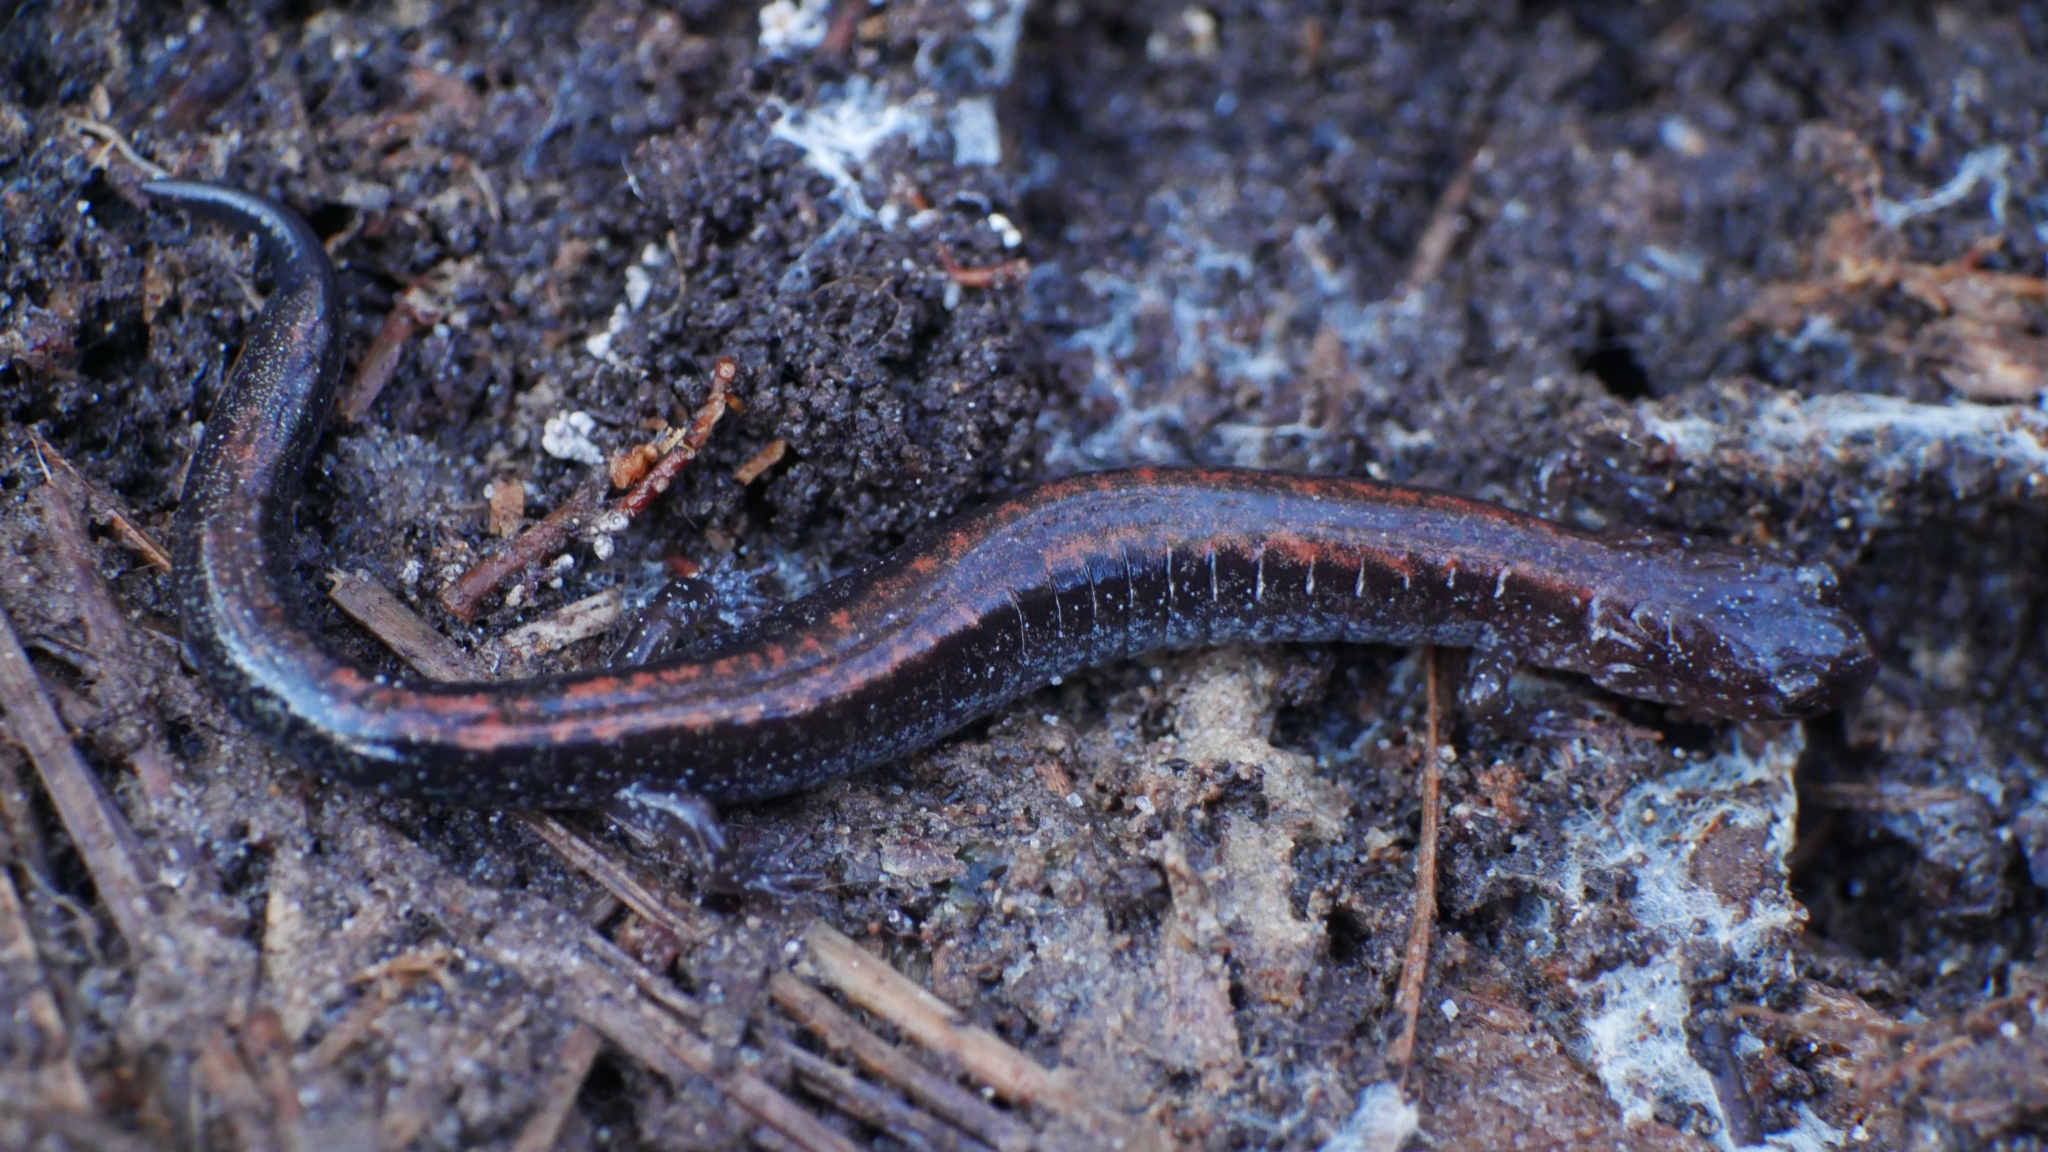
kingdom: Animalia
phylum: Chordata
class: Amphibia
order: Caudata
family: Plethodontidae
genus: Plethodon
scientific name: Plethodon cinereus
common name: Redback salamander
